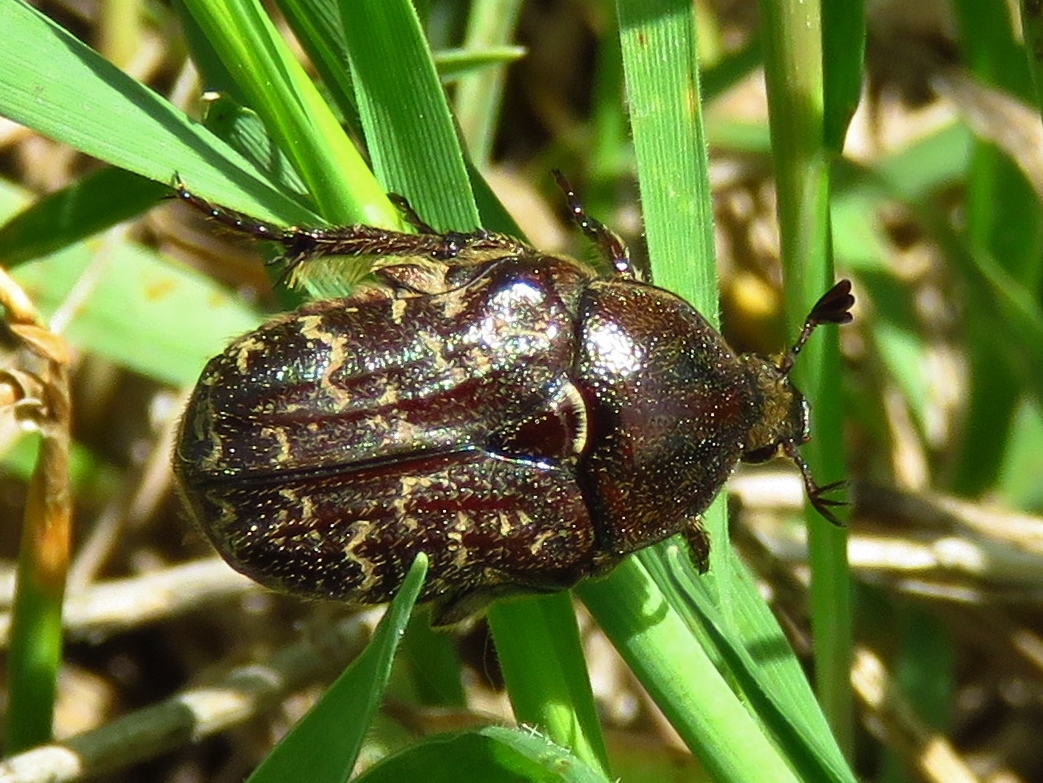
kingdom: Animalia
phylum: Arthropoda
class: Insecta
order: Coleoptera
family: Scarabaeidae
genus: Euphoria
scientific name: Euphoria sepulcralis
